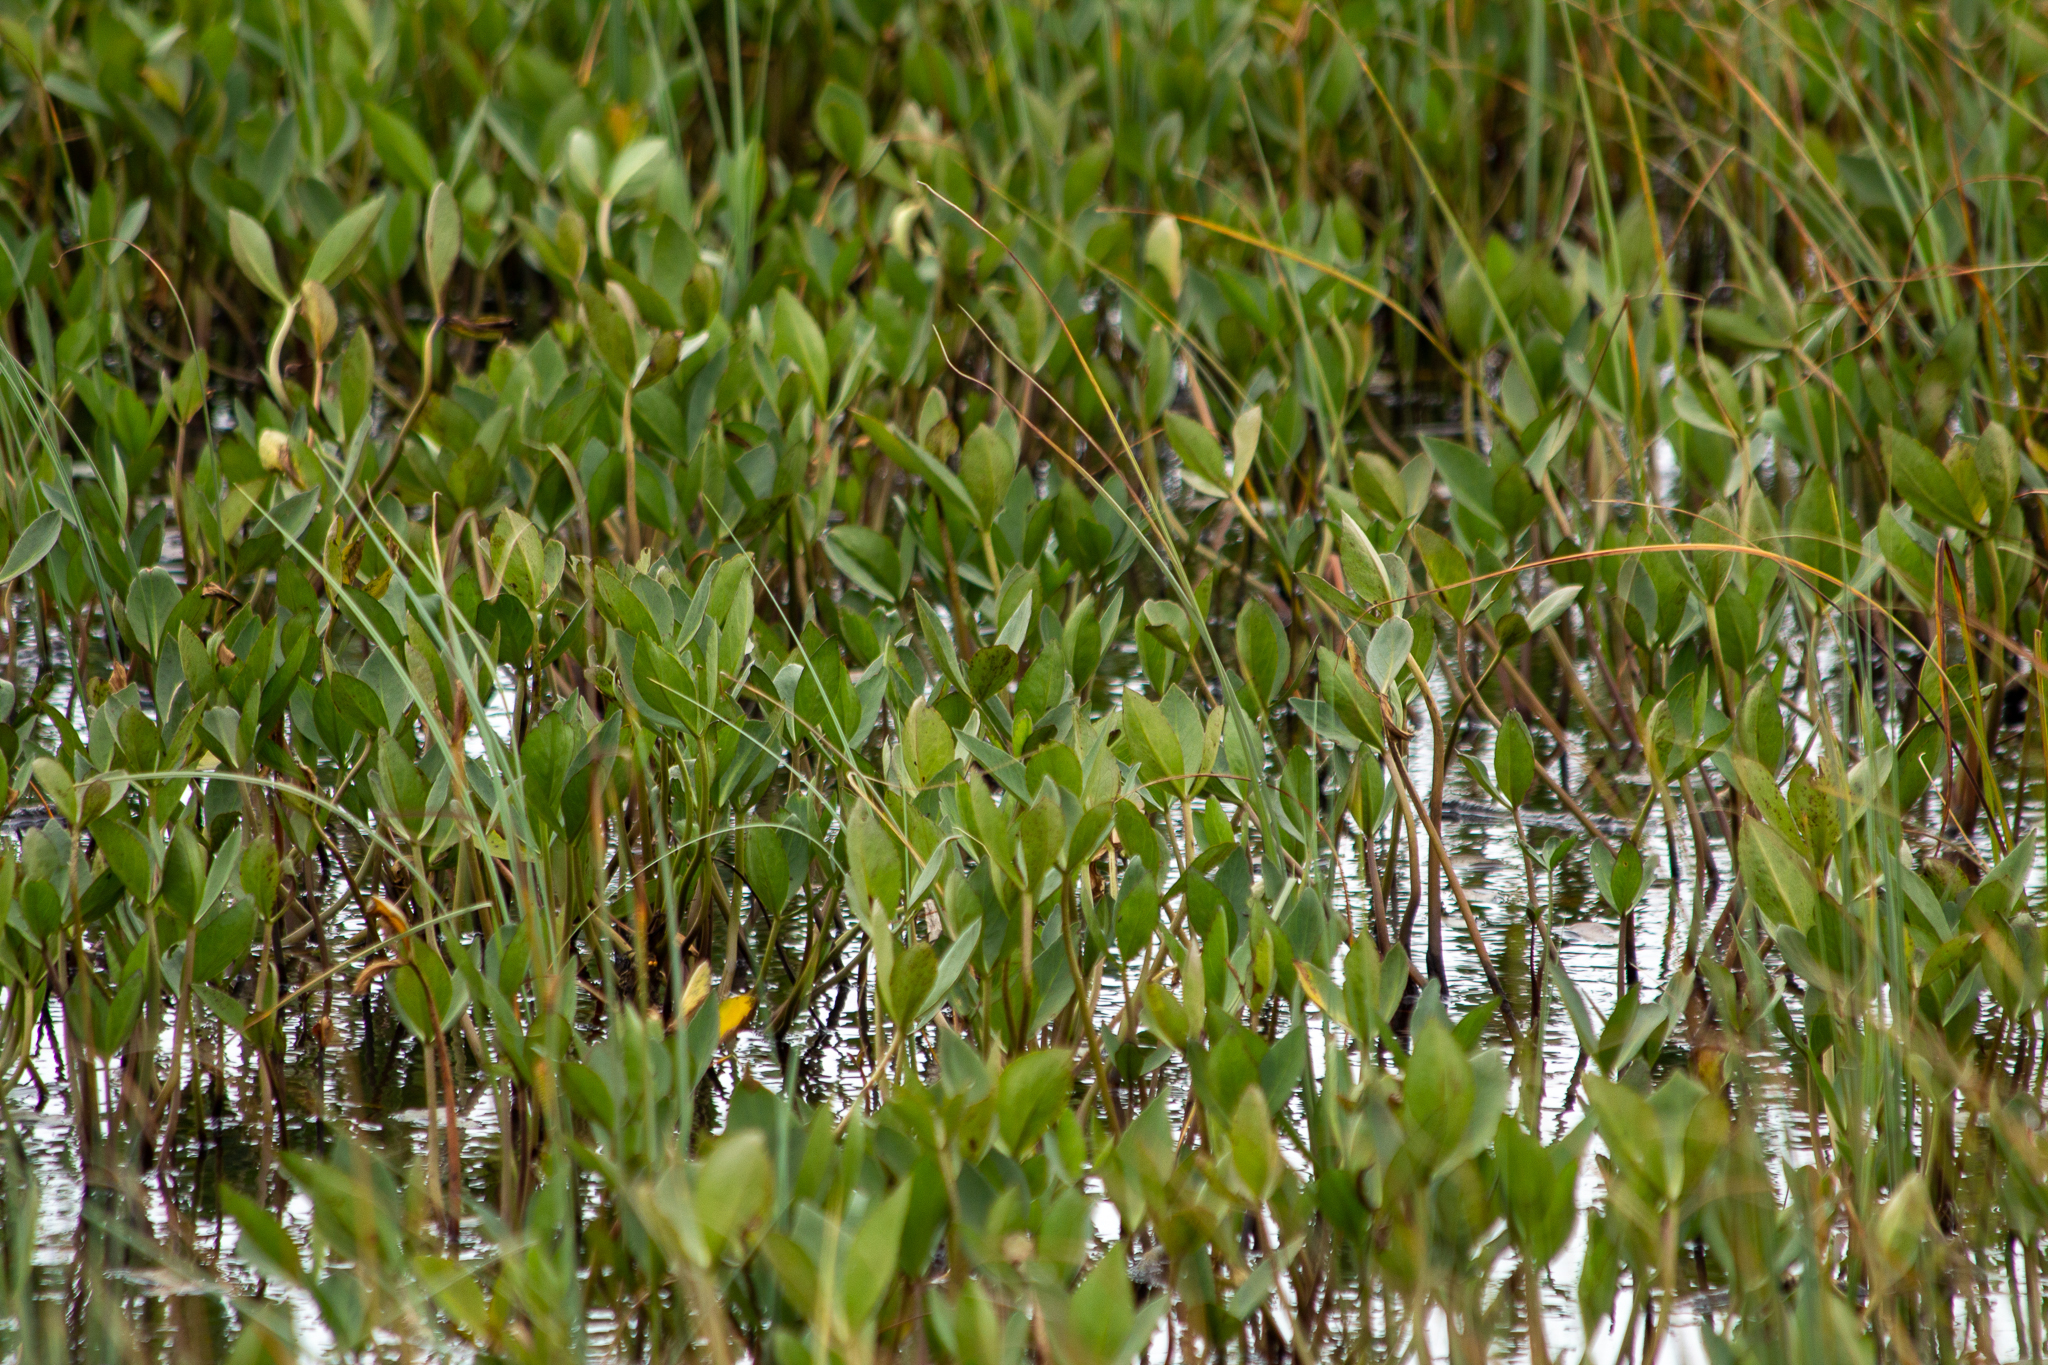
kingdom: Plantae
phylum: Tracheophyta
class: Magnoliopsida
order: Asterales
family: Menyanthaceae
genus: Menyanthes
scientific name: Menyanthes trifoliata
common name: Bogbean
